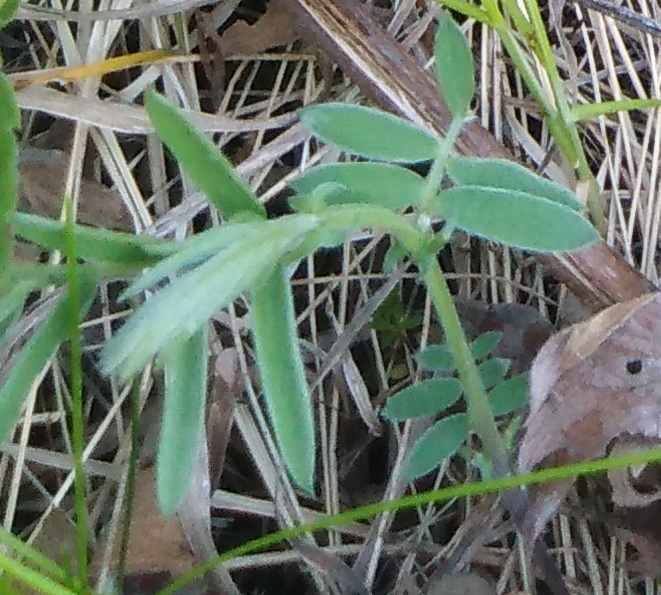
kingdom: Plantae
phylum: Tracheophyta
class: Magnoliopsida
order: Fabales
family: Fabaceae
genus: Vicia
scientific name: Vicia cracca
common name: Bird vetch
